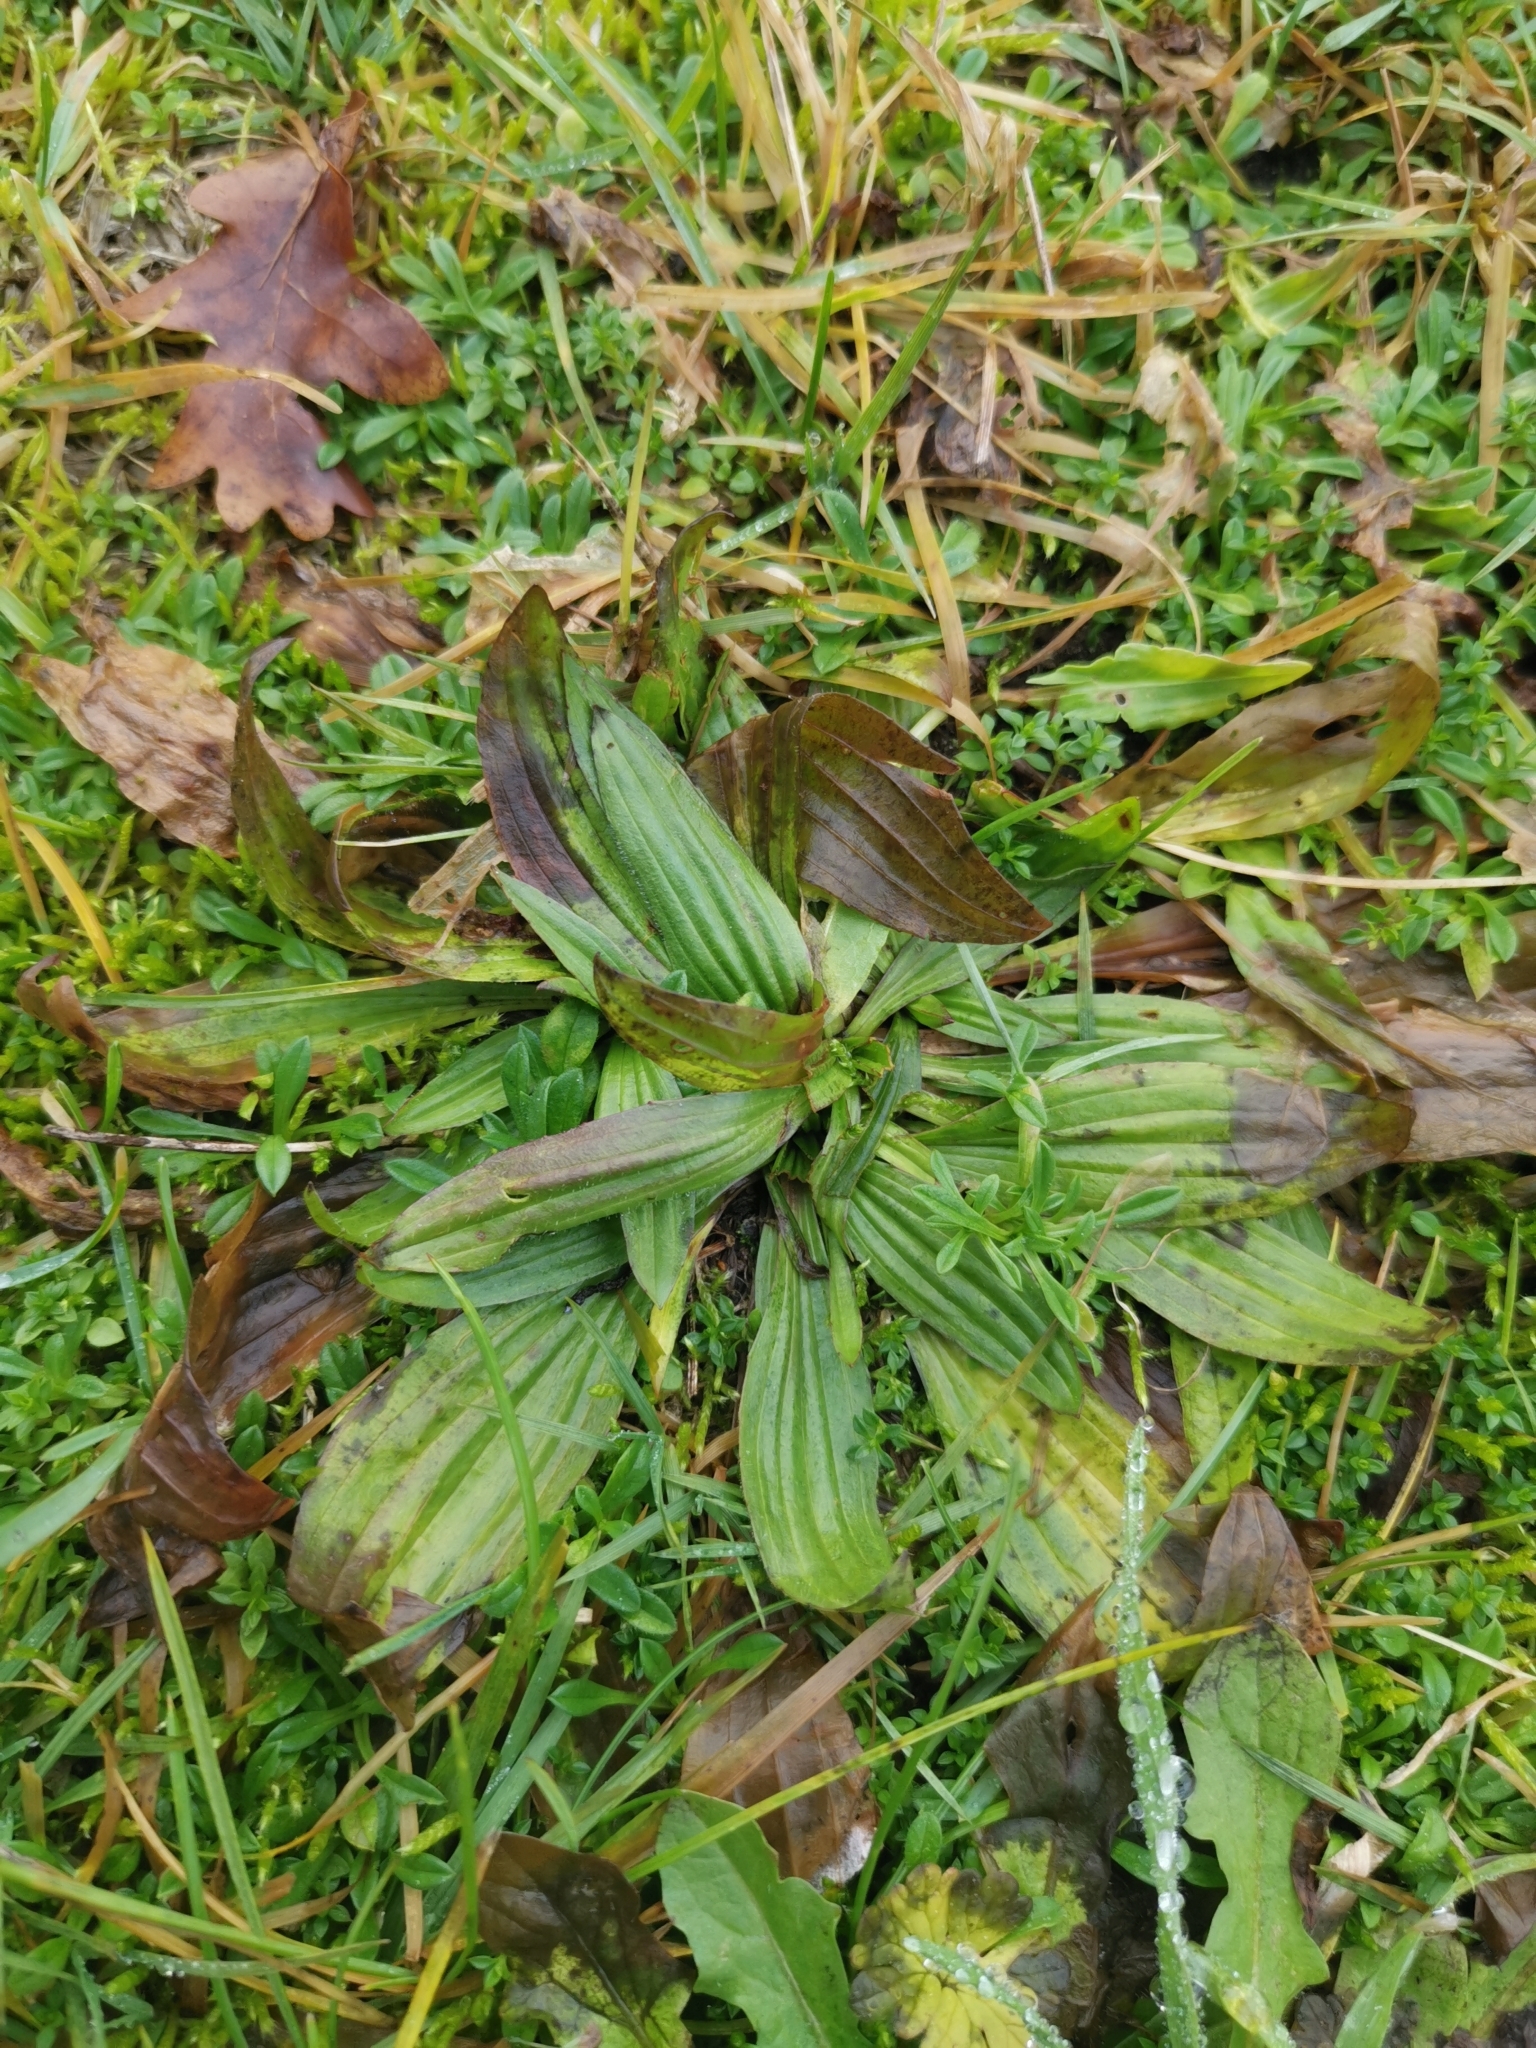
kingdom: Plantae
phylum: Tracheophyta
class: Magnoliopsida
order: Lamiales
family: Plantaginaceae
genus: Plantago
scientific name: Plantago lanceolata
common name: Ribwort plantain
